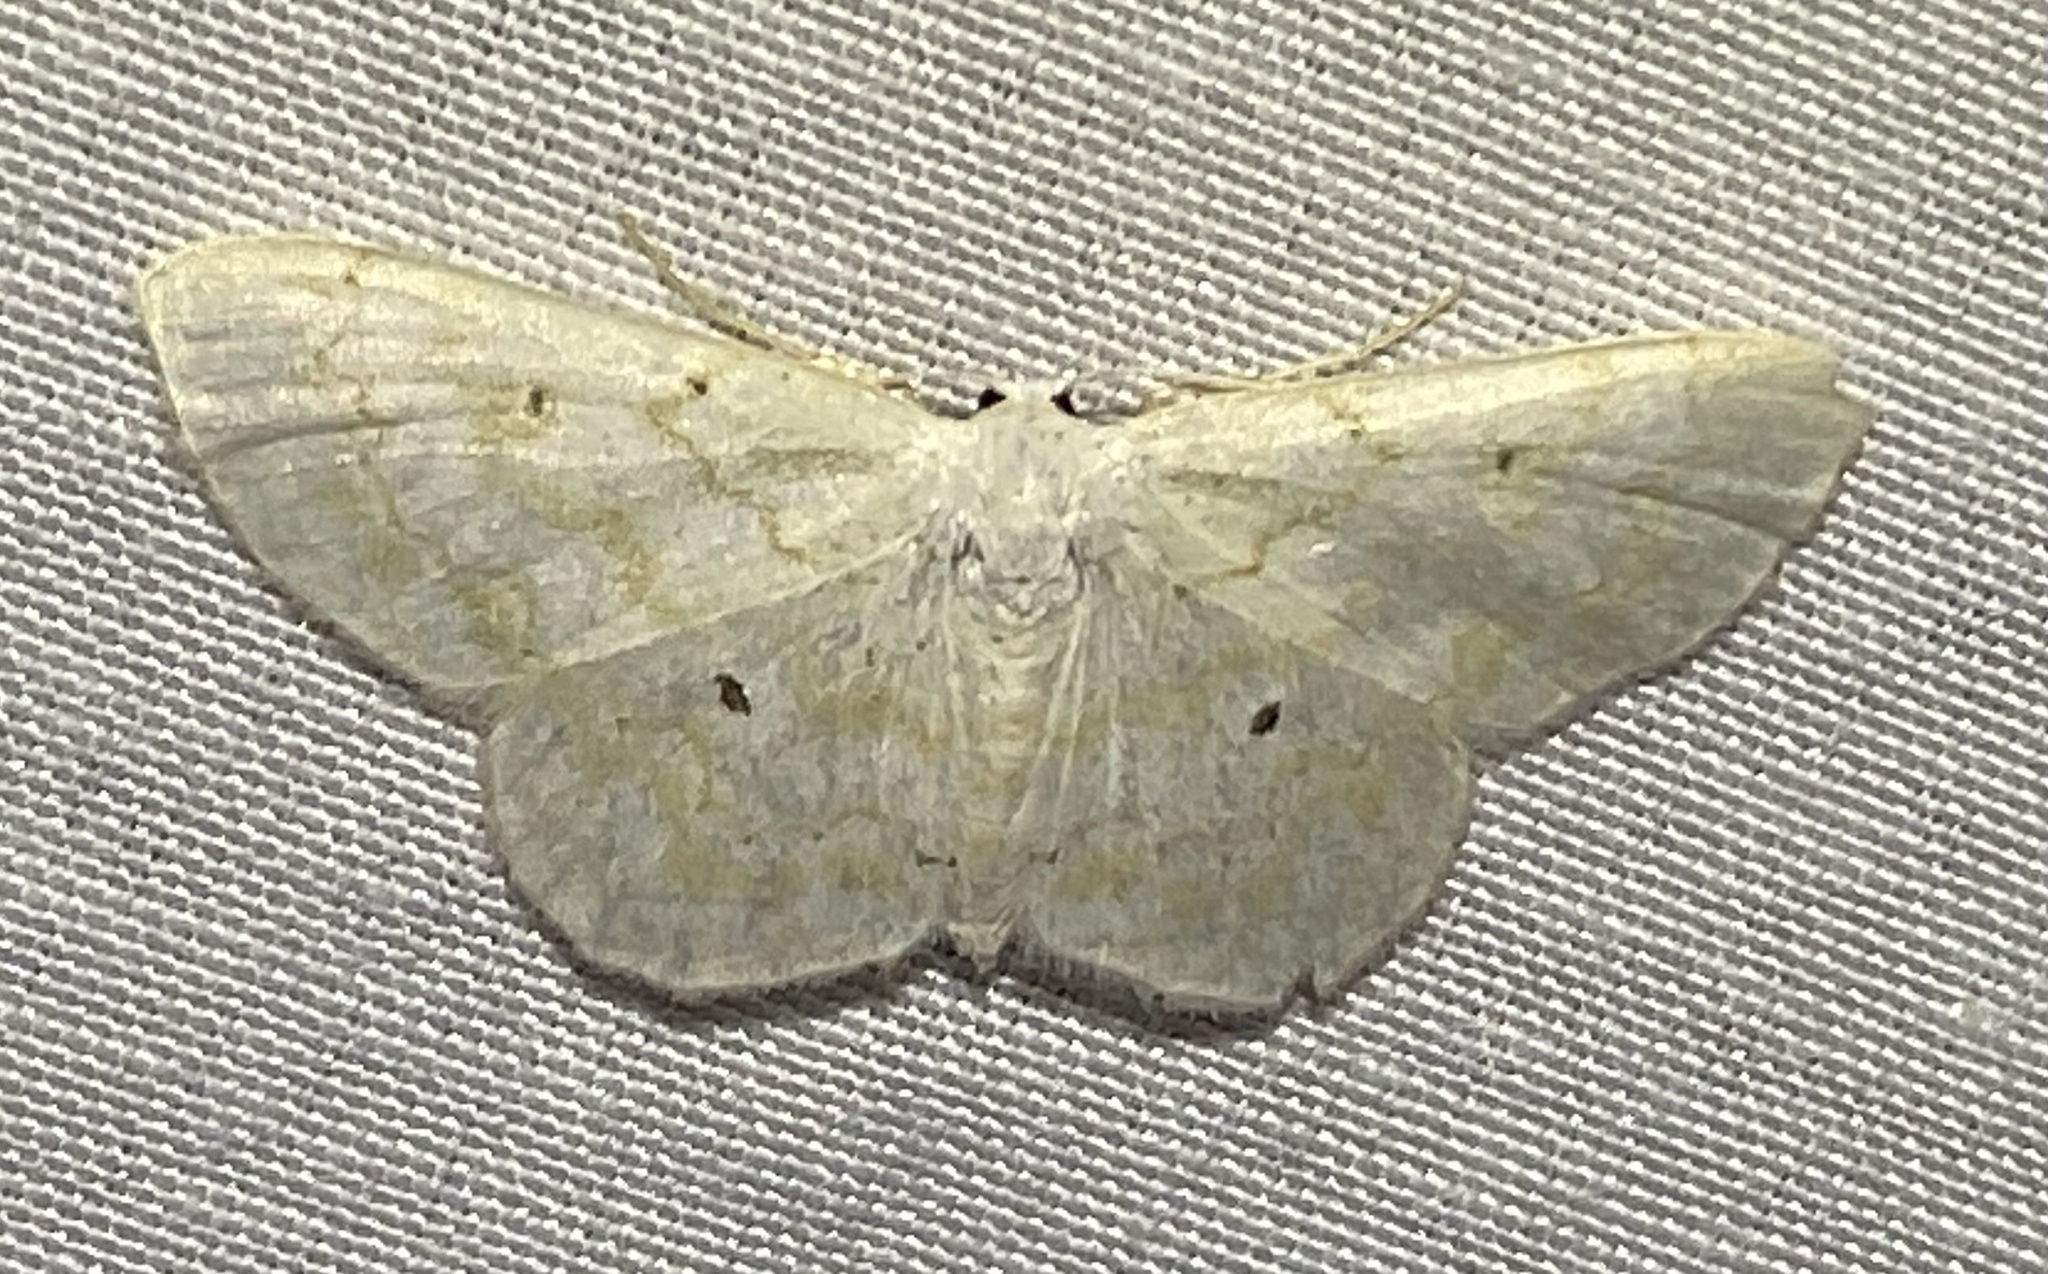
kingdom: Animalia
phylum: Arthropoda
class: Insecta
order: Lepidoptera
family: Geometridae
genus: Idaea
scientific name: Idaea obfusaria
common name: Rippled wave
